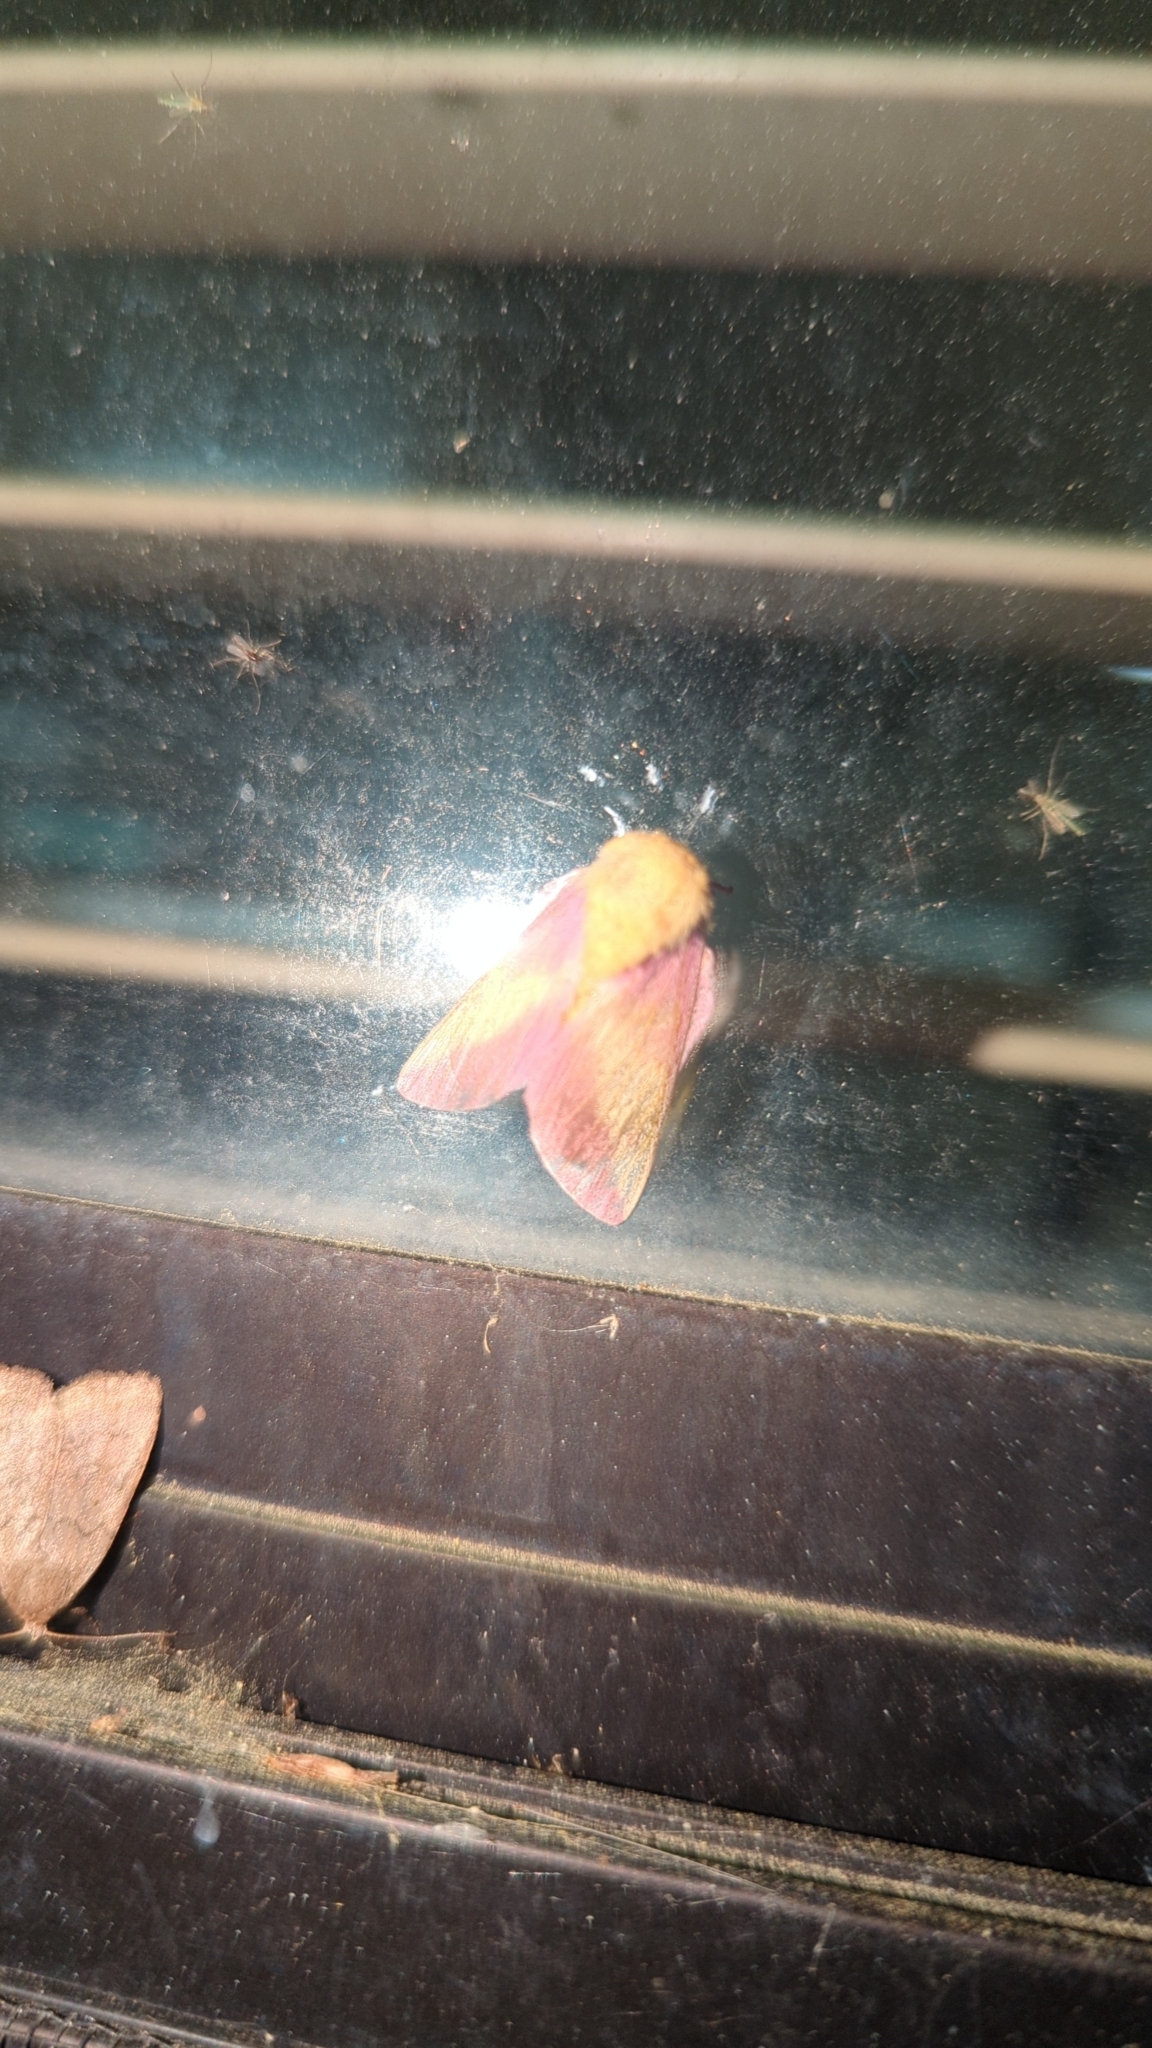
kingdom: Animalia
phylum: Arthropoda
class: Insecta
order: Lepidoptera
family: Saturniidae
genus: Dryocampa
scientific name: Dryocampa rubicunda
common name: Rosy maple moth
